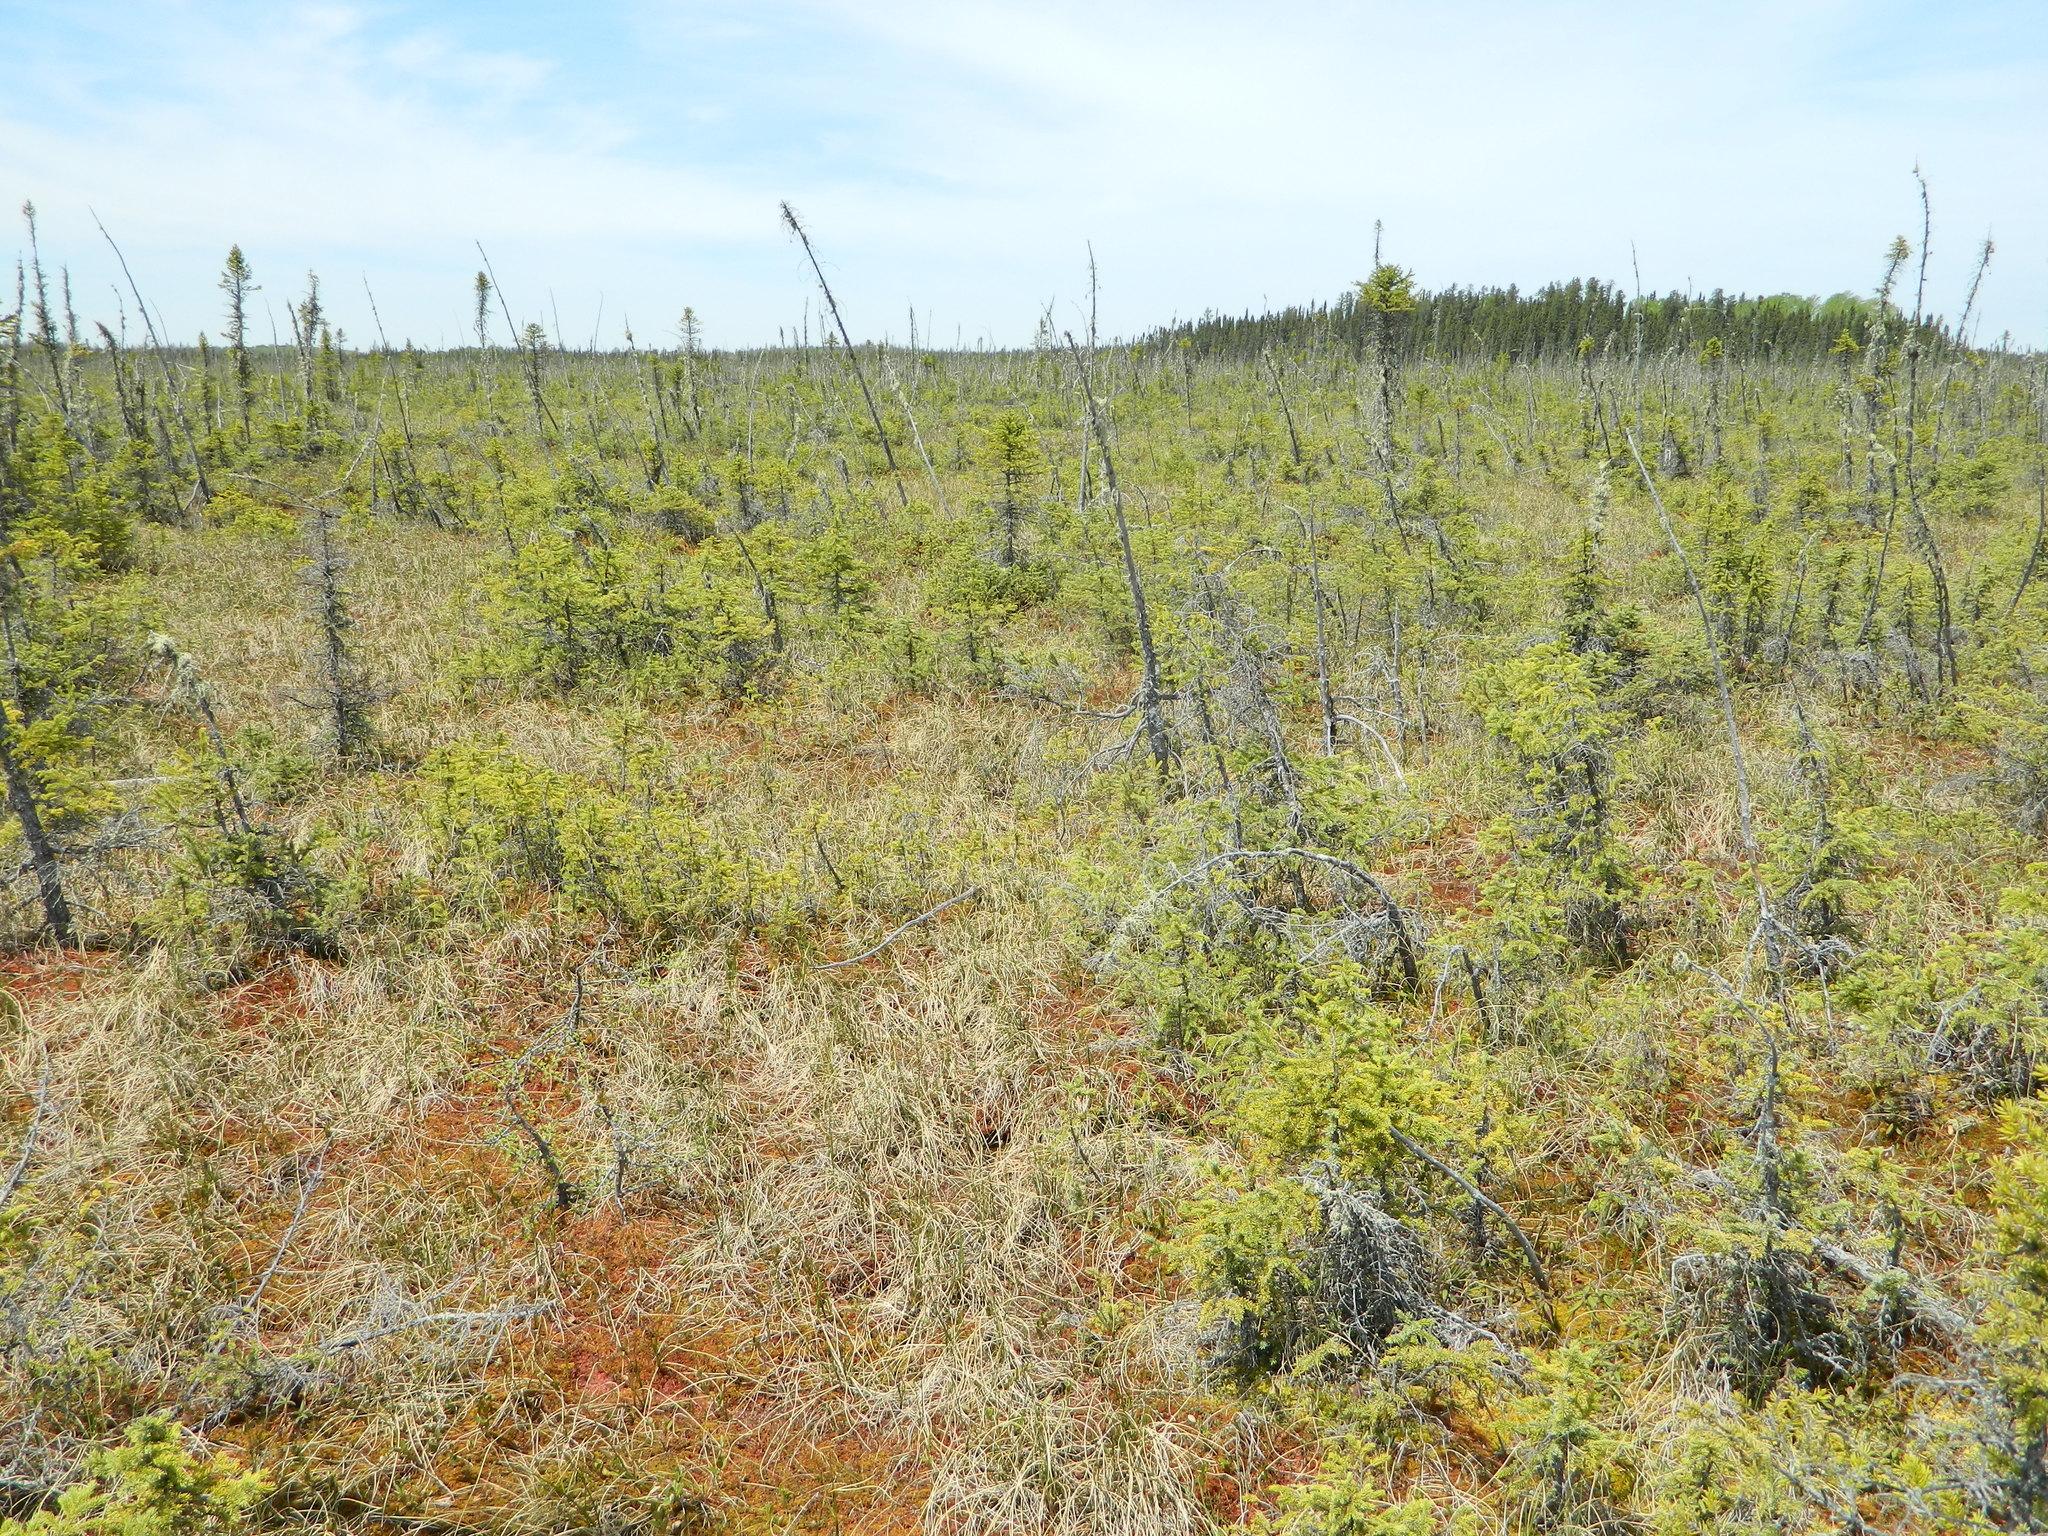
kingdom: Plantae
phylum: Tracheophyta
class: Pinopsida
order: Pinales
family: Pinaceae
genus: Picea
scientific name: Picea mariana
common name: Black spruce
